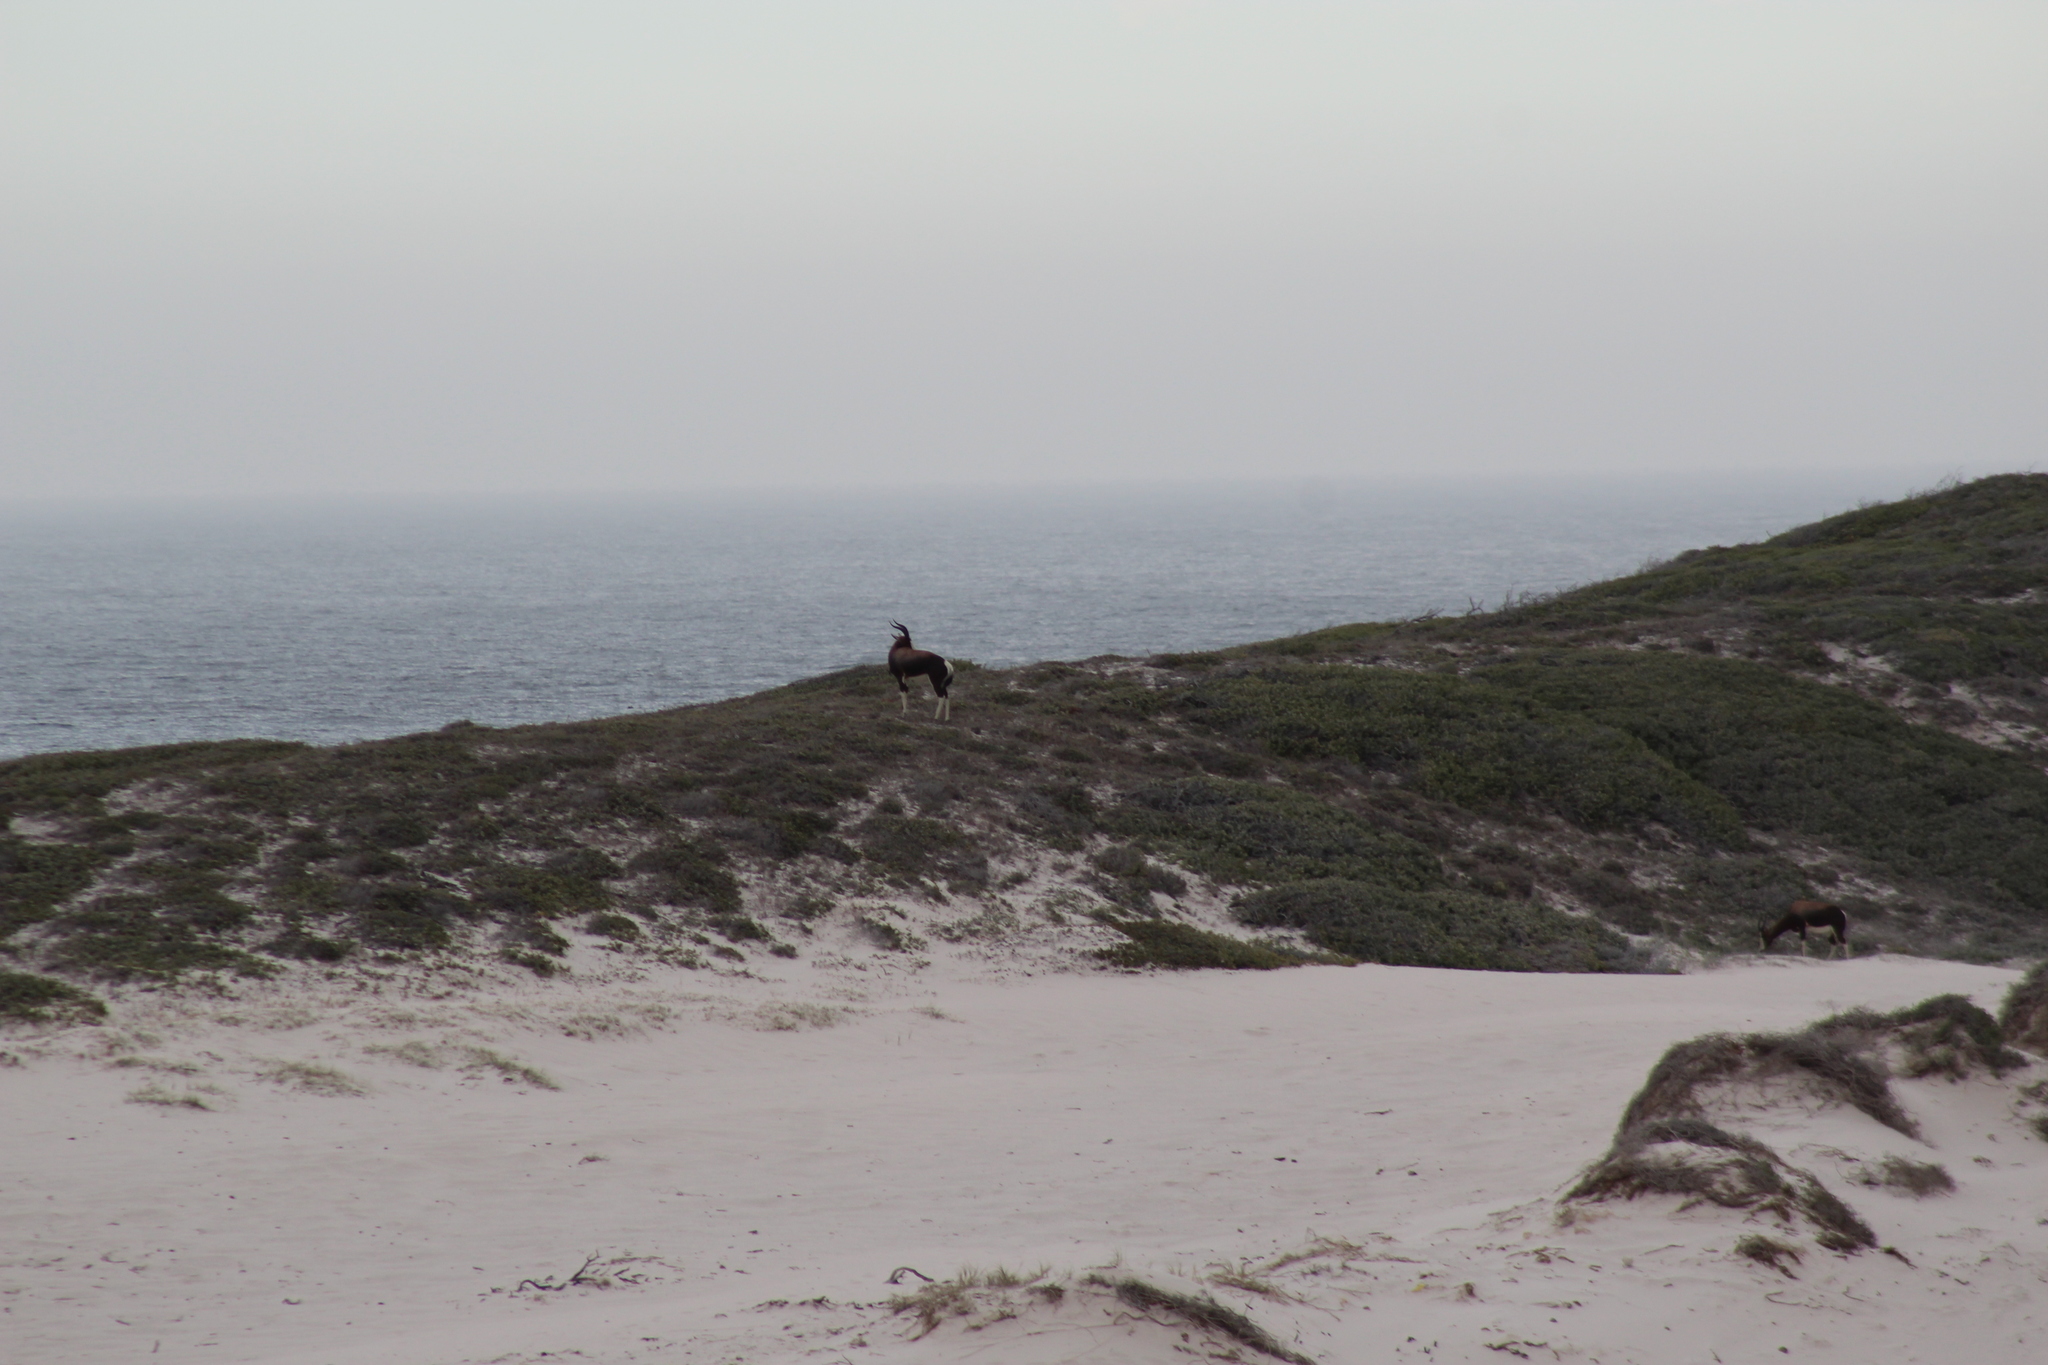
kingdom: Animalia
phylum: Chordata
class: Mammalia
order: Artiodactyla
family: Bovidae
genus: Damaliscus
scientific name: Damaliscus pygargus
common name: Bontebok
